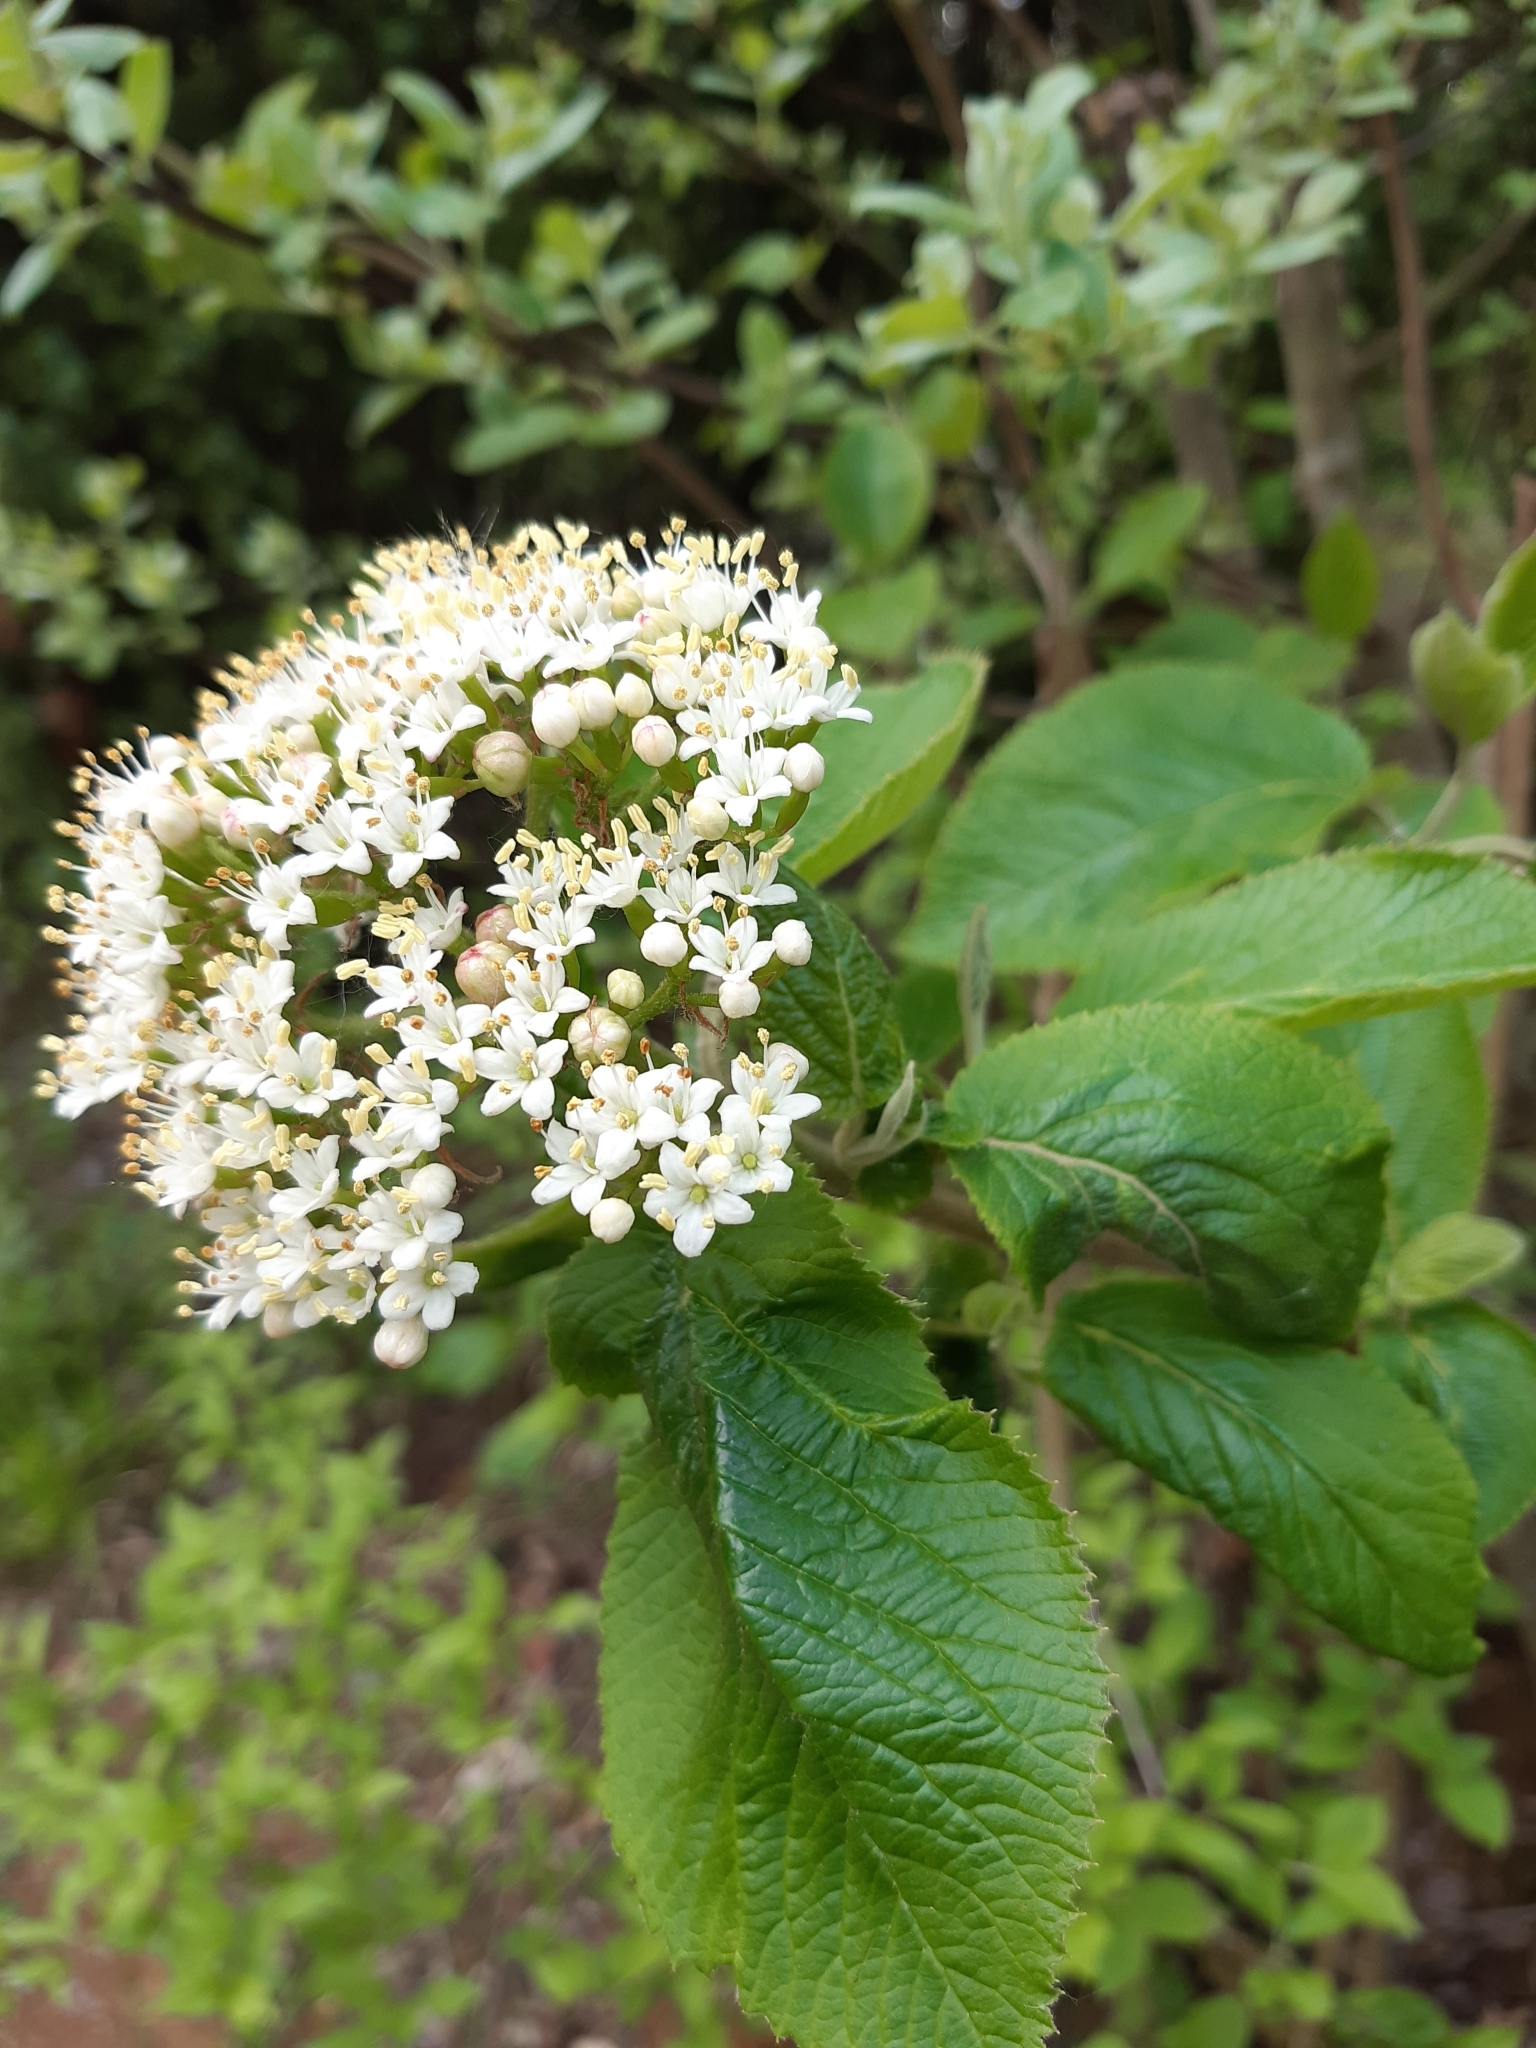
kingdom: Plantae
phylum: Tracheophyta
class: Magnoliopsida
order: Dipsacales
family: Viburnaceae
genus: Viburnum
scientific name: Viburnum lantana
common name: Wayfaring tree
